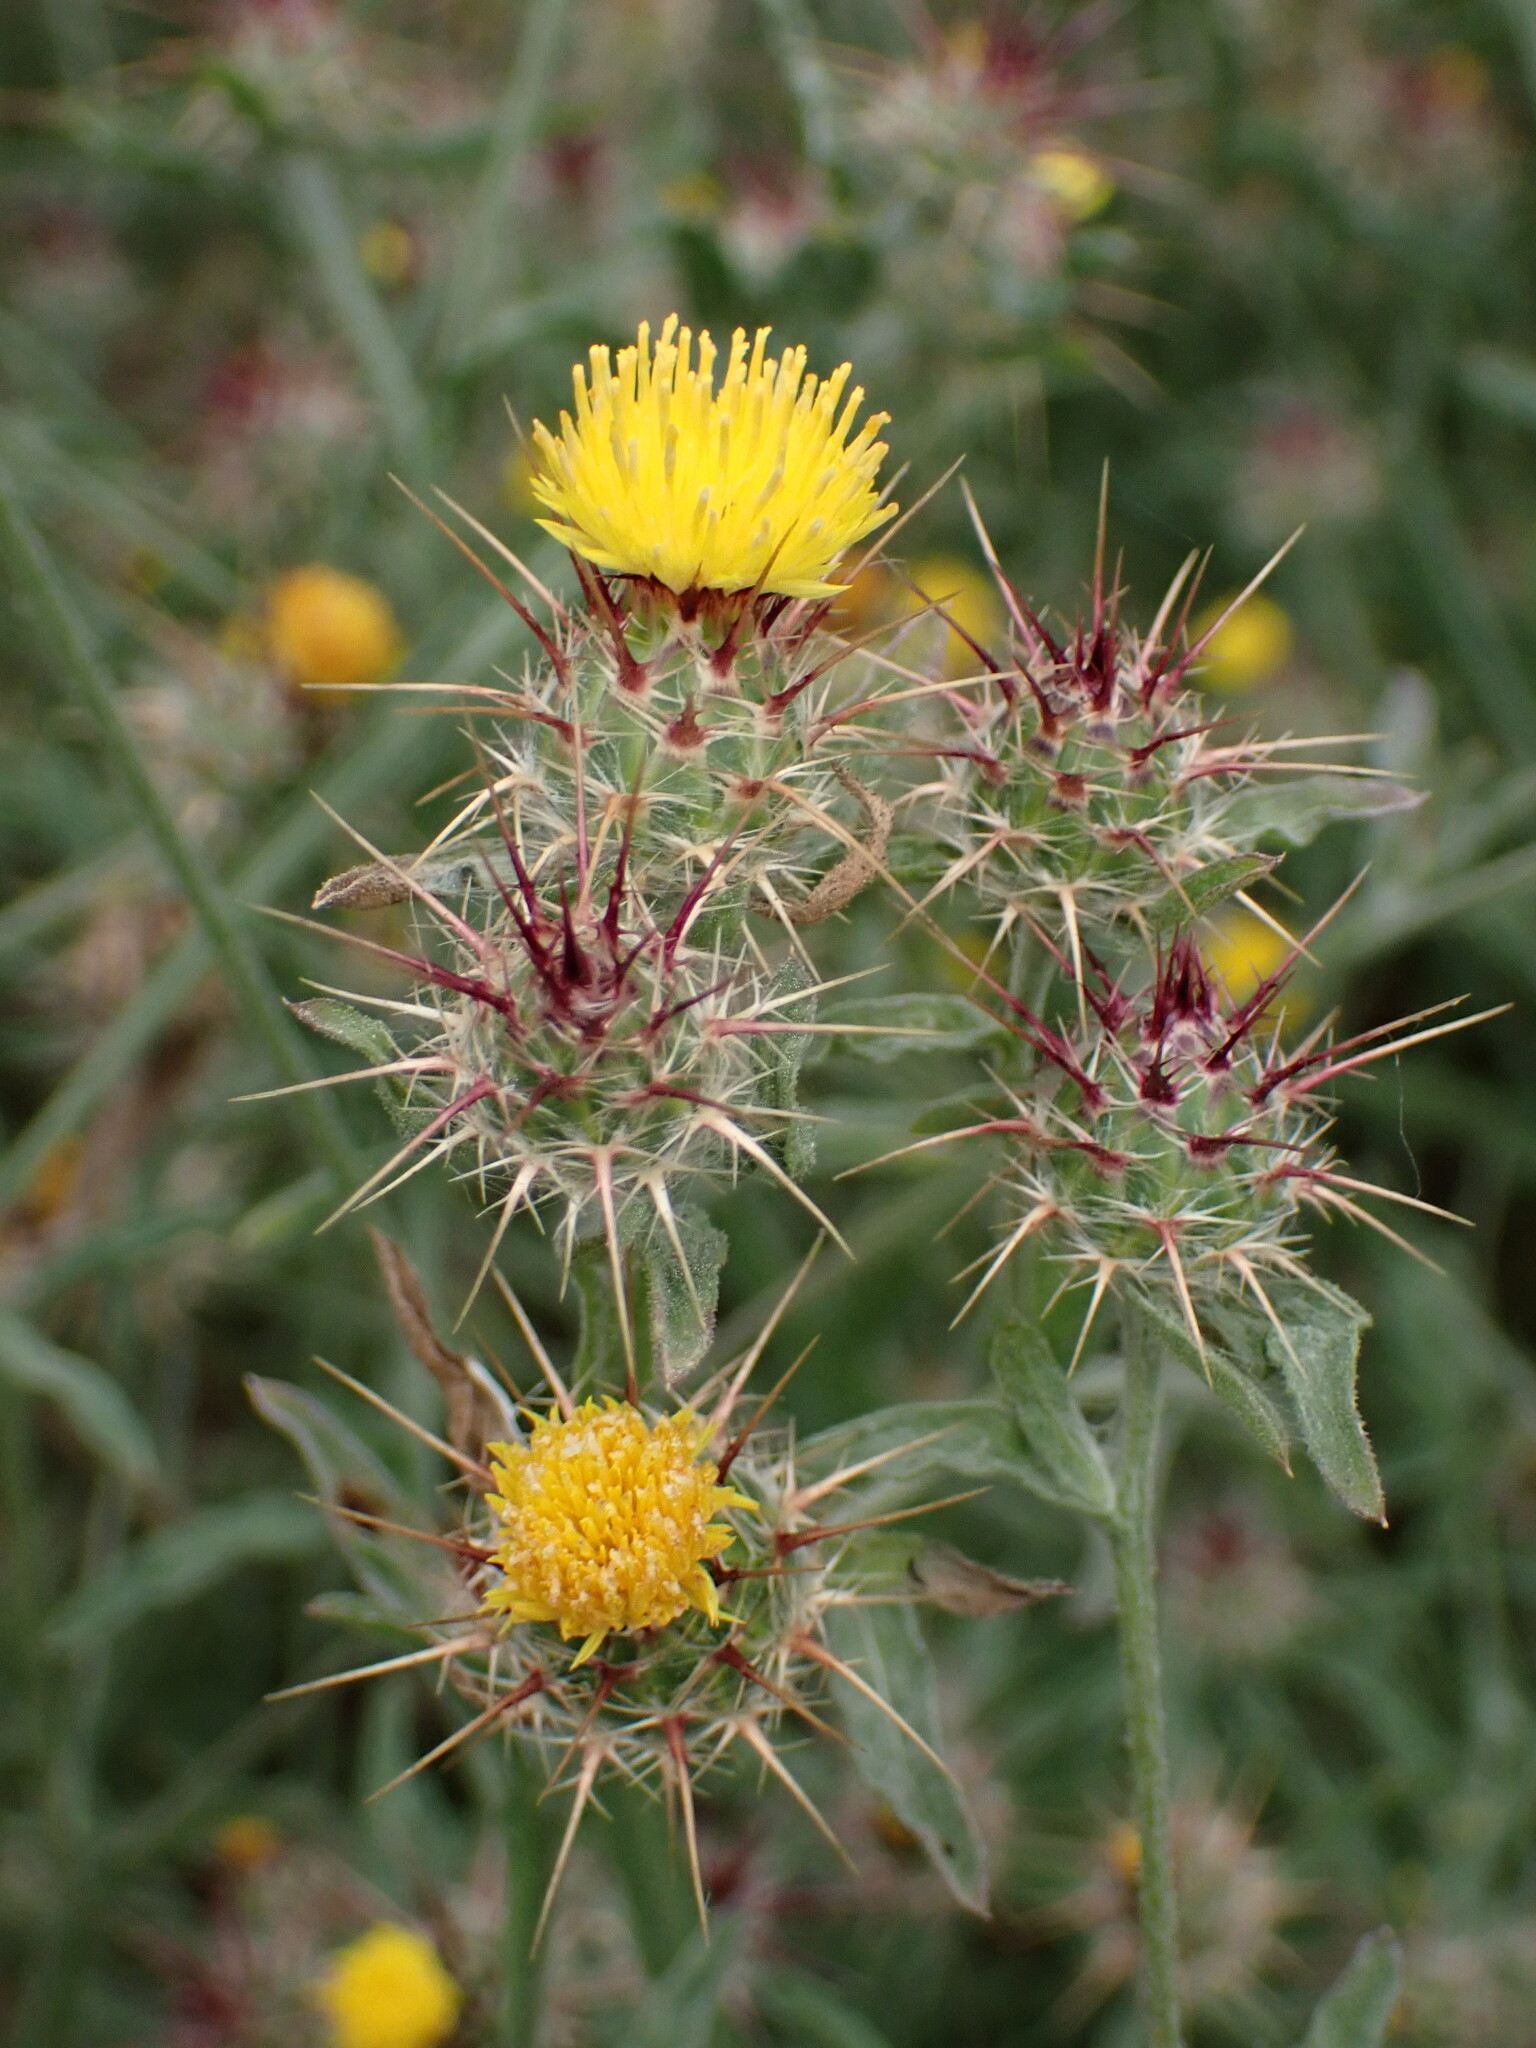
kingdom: Plantae
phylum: Tracheophyta
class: Magnoliopsida
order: Asterales
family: Asteraceae
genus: Centaurea
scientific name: Centaurea melitensis
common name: Maltese star-thistle
